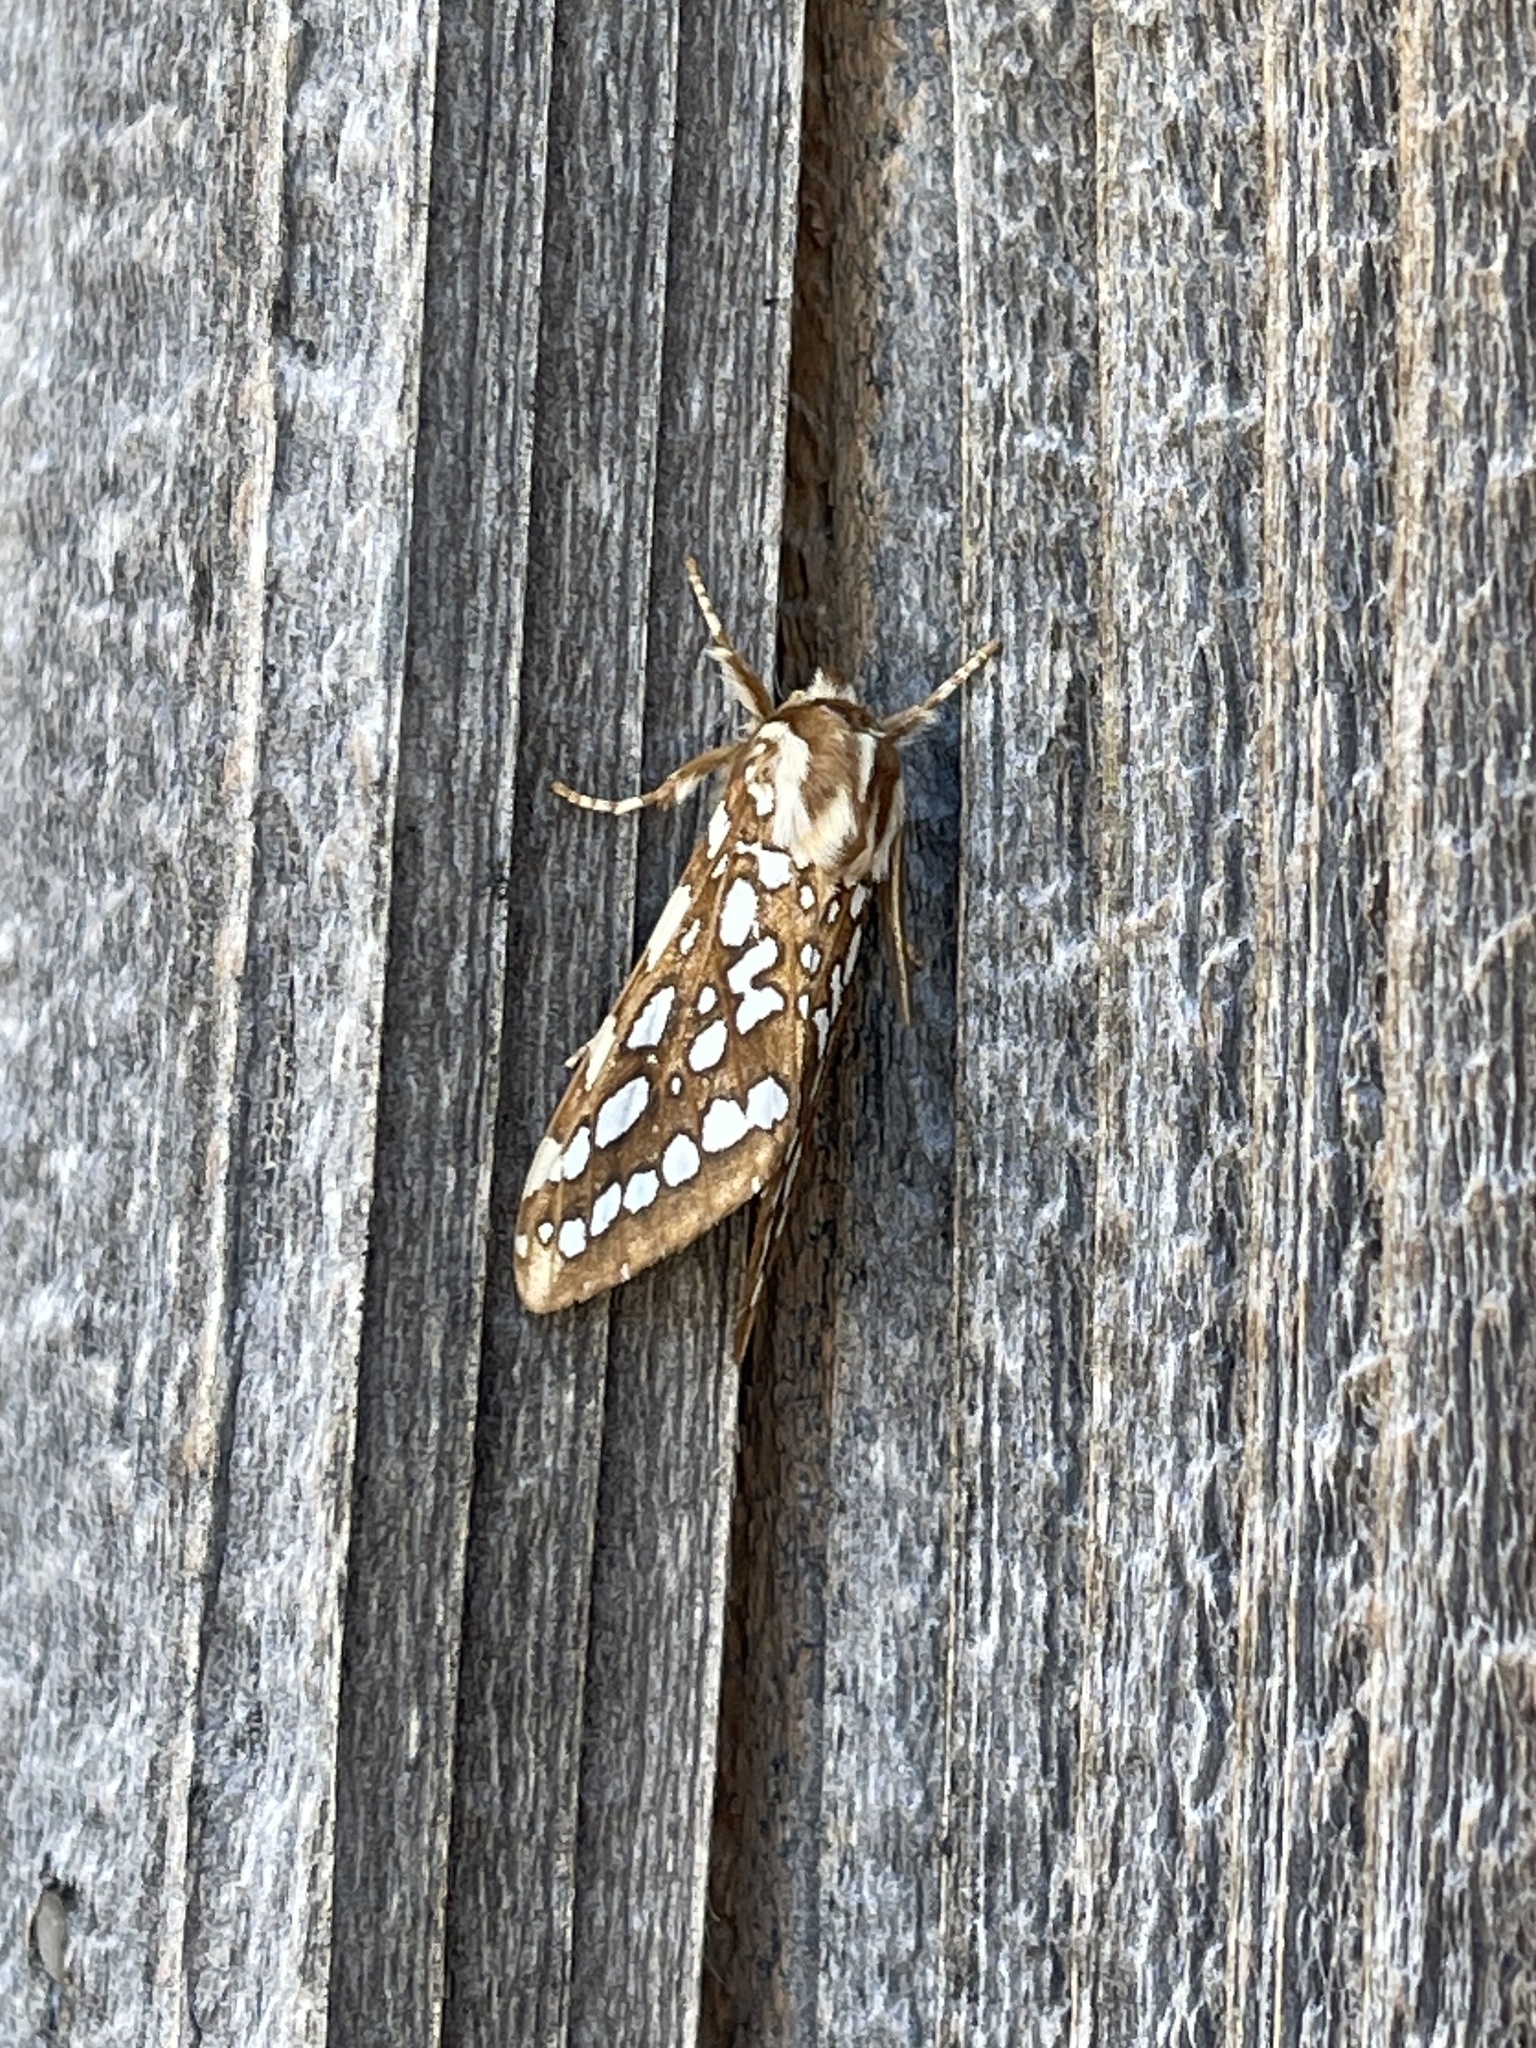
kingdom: Animalia
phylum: Arthropoda
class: Insecta
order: Lepidoptera
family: Erebidae
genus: Lophocampa
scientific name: Lophocampa argentata
